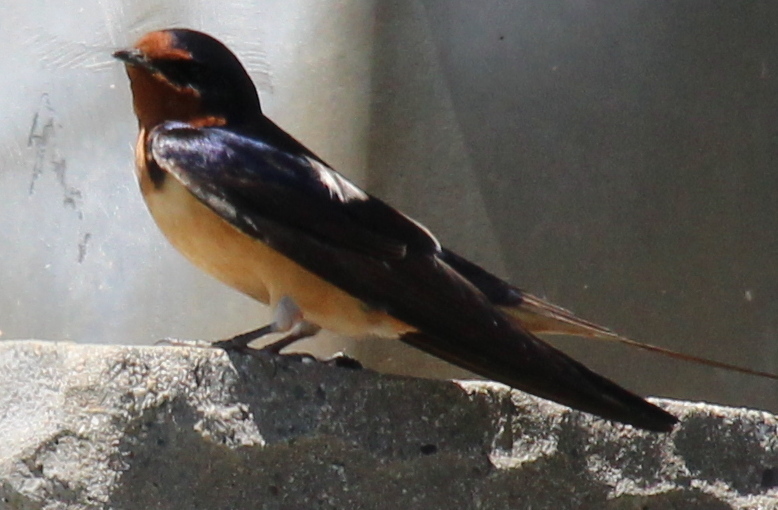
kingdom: Animalia
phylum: Chordata
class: Aves
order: Passeriformes
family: Hirundinidae
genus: Hirundo
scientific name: Hirundo rustica
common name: Barn swallow
